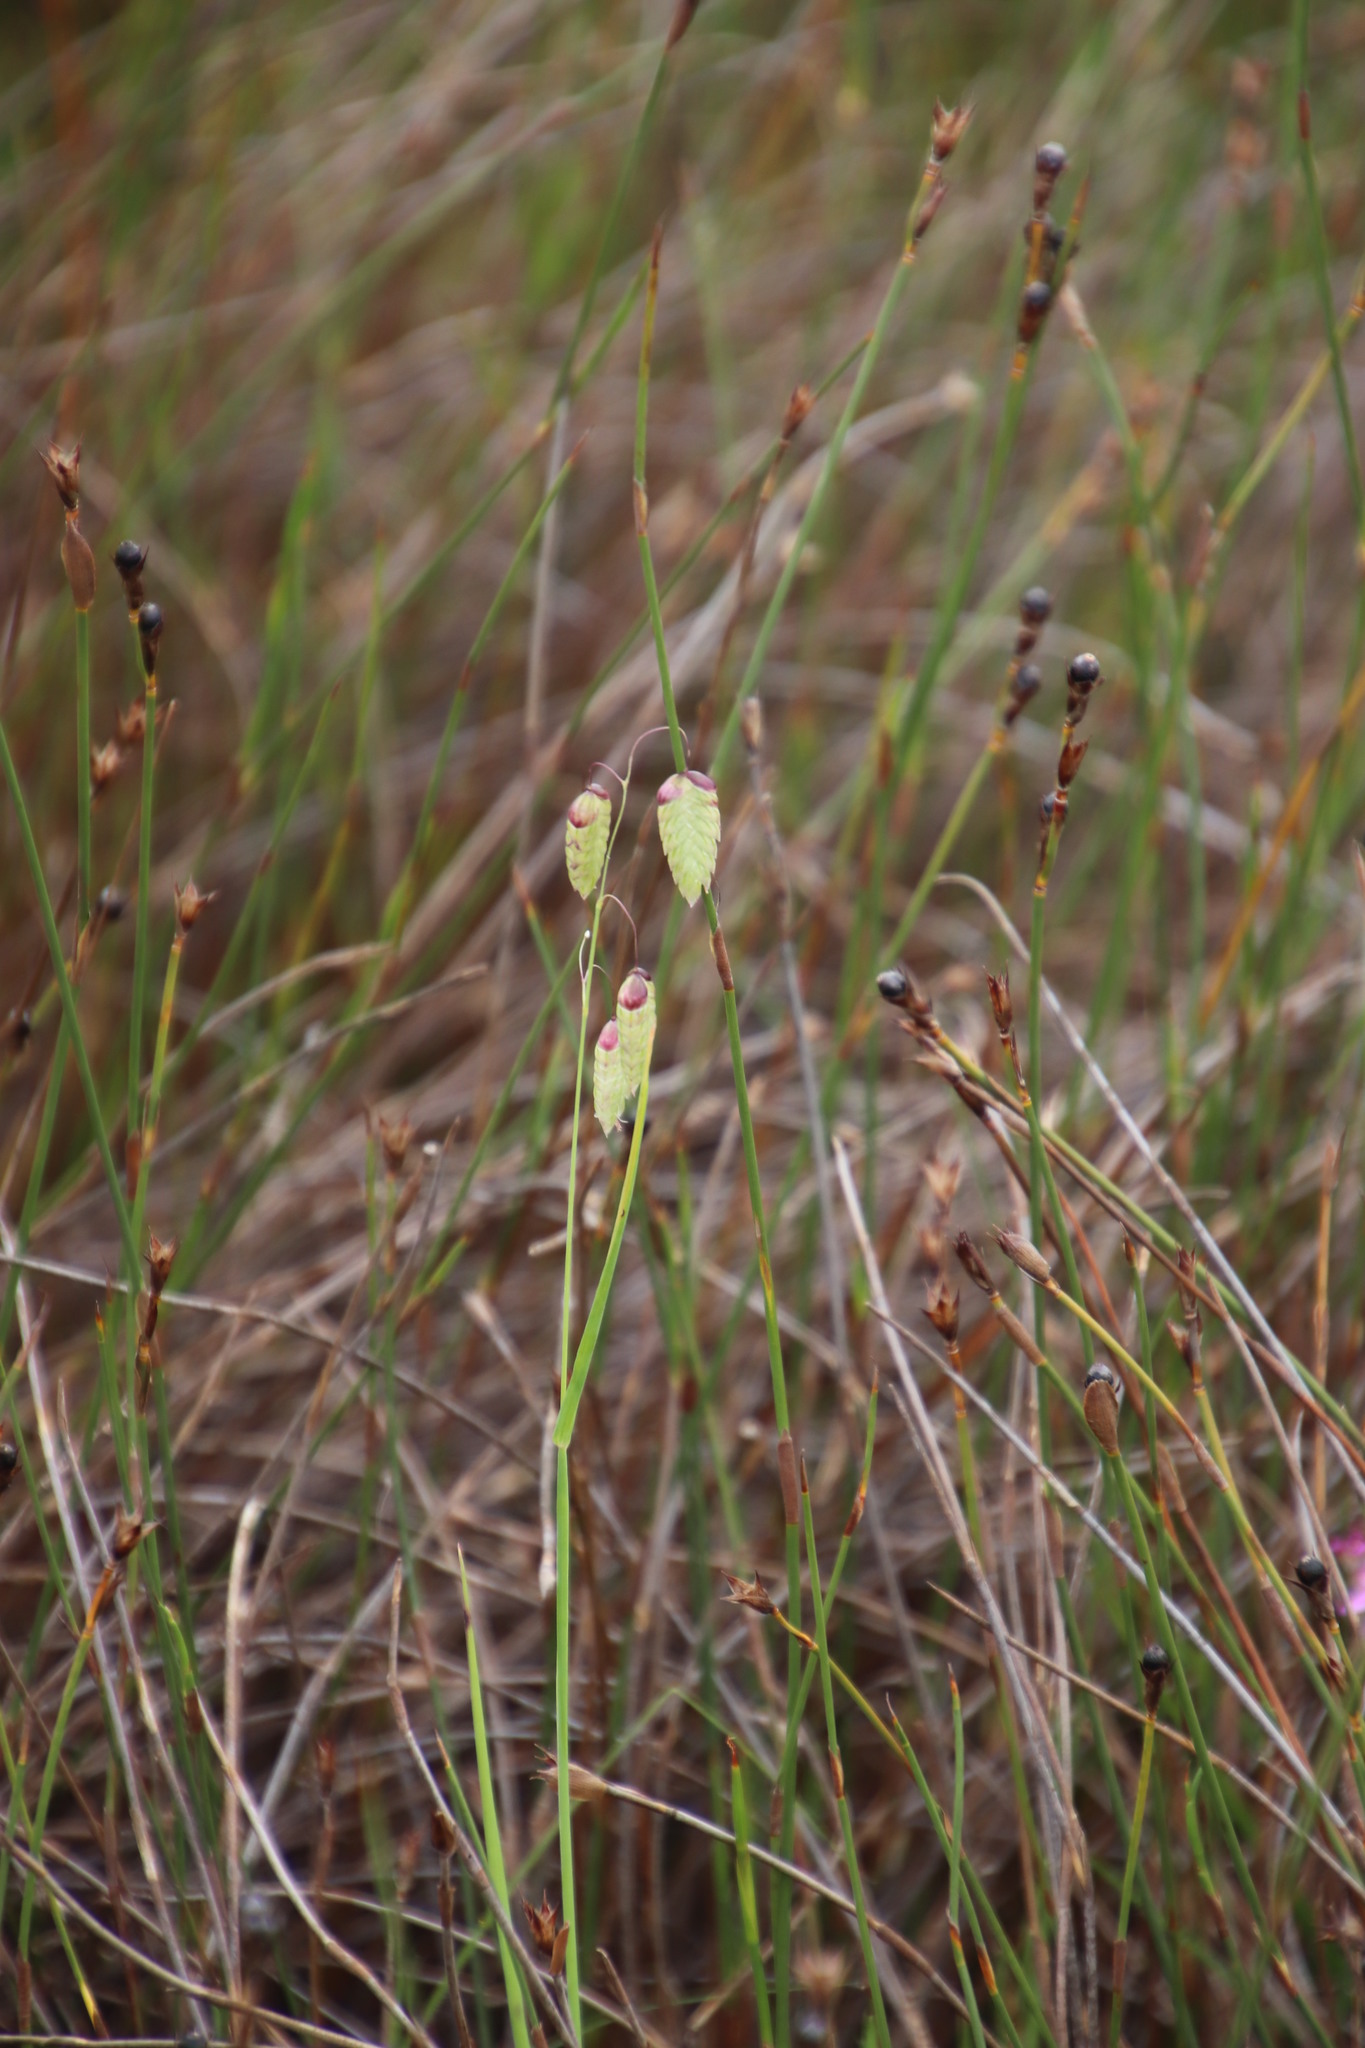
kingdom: Plantae
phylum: Tracheophyta
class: Liliopsida
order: Poales
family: Poaceae
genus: Briza
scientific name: Briza maxima
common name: Big quakinggrass
